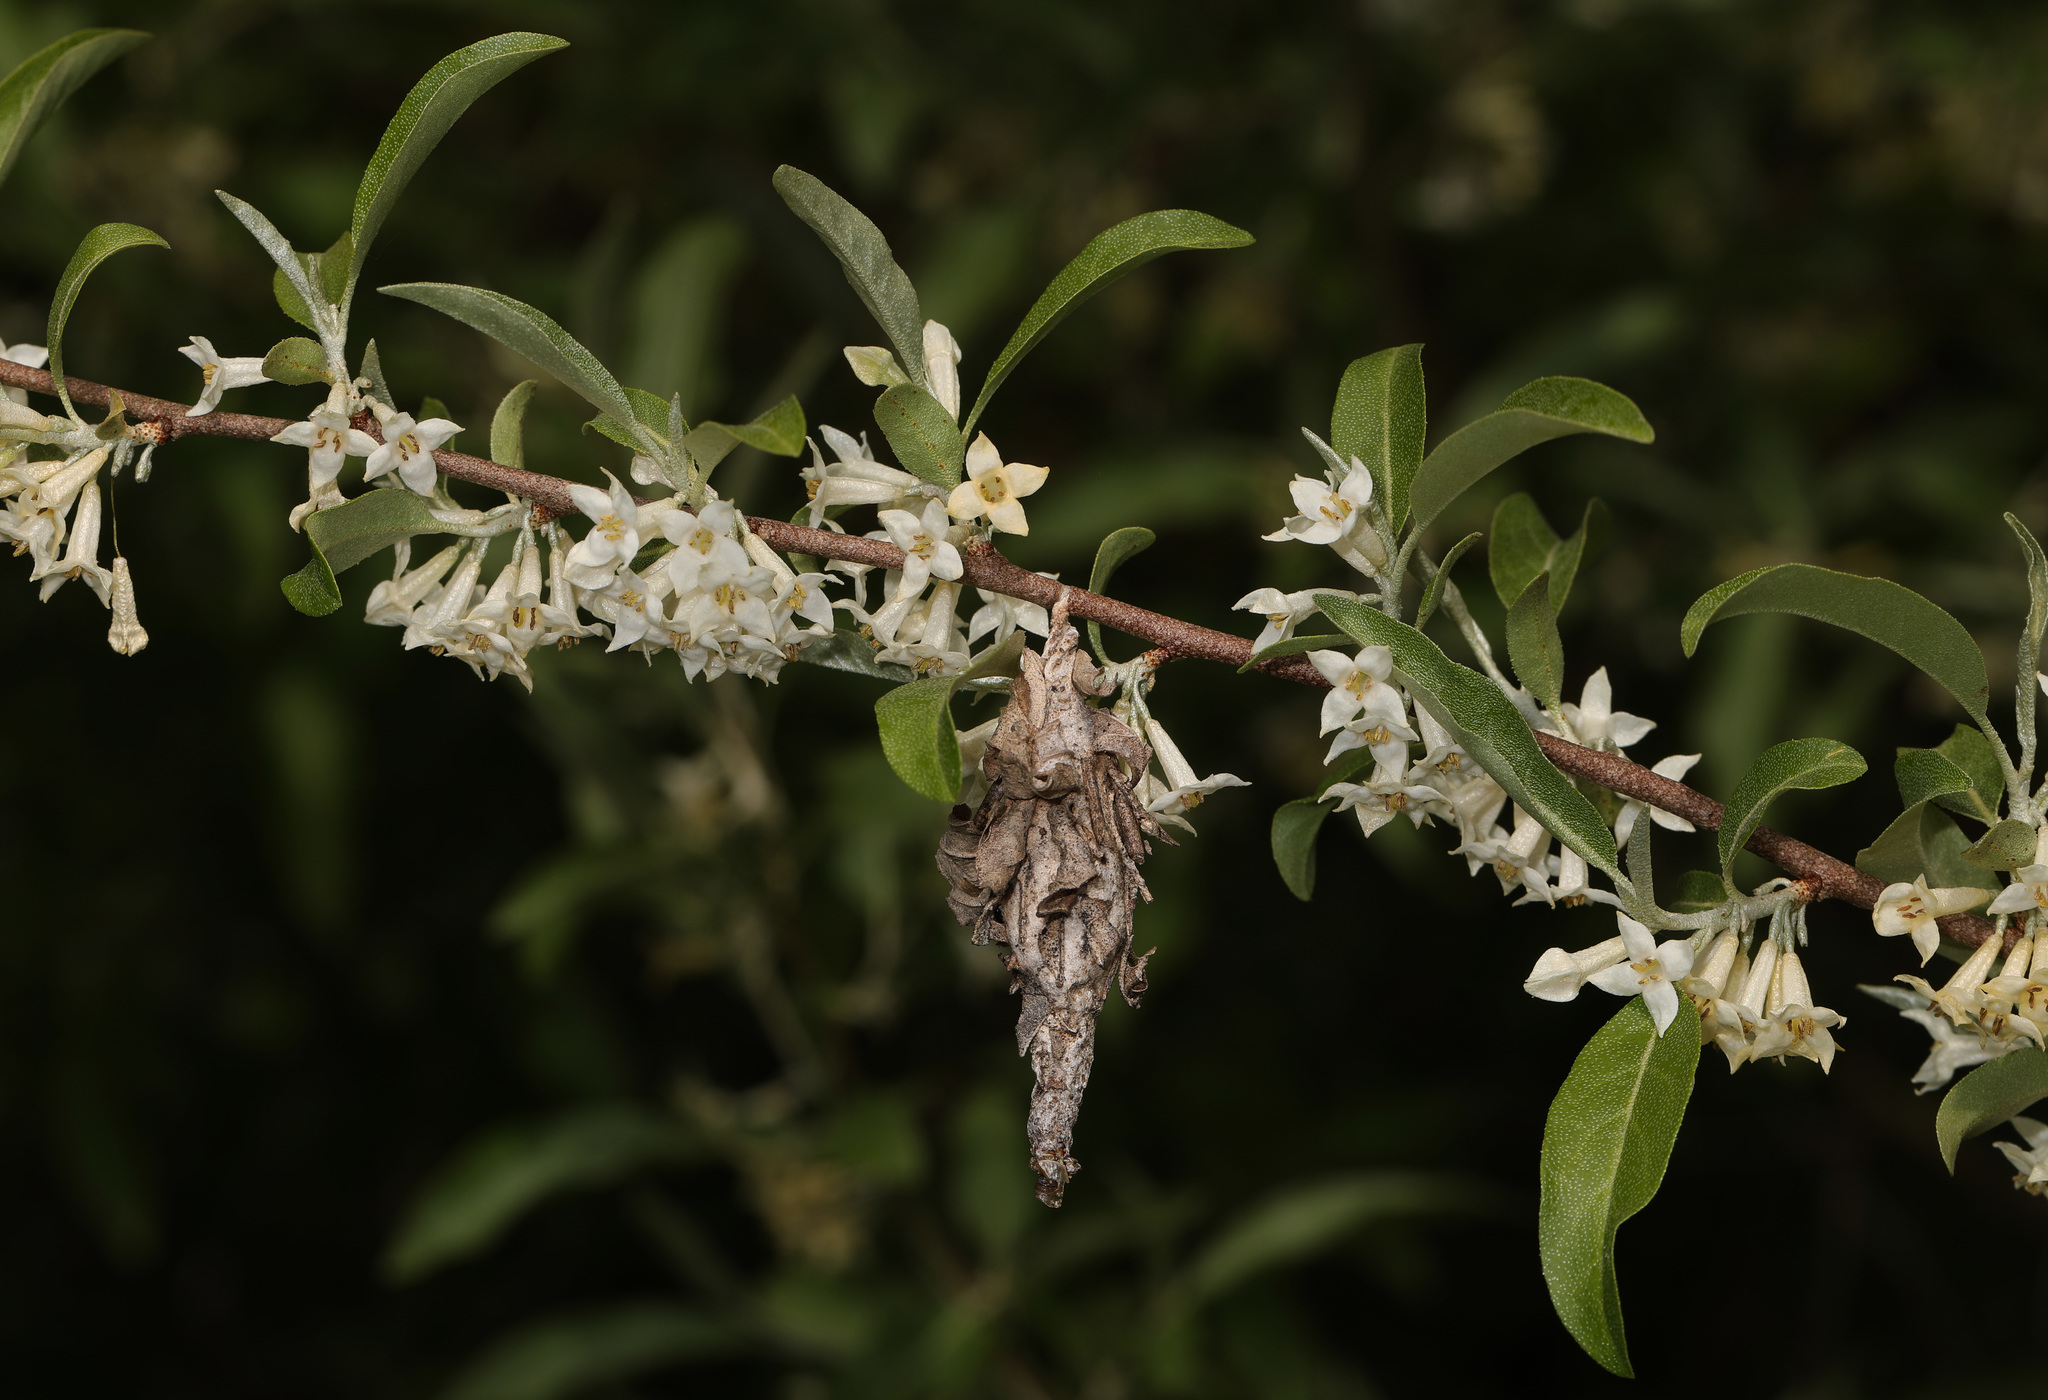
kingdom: Animalia
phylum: Arthropoda
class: Insecta
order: Lepidoptera
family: Psychidae
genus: Thyridopteryx
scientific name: Thyridopteryx ephemeraeformis
